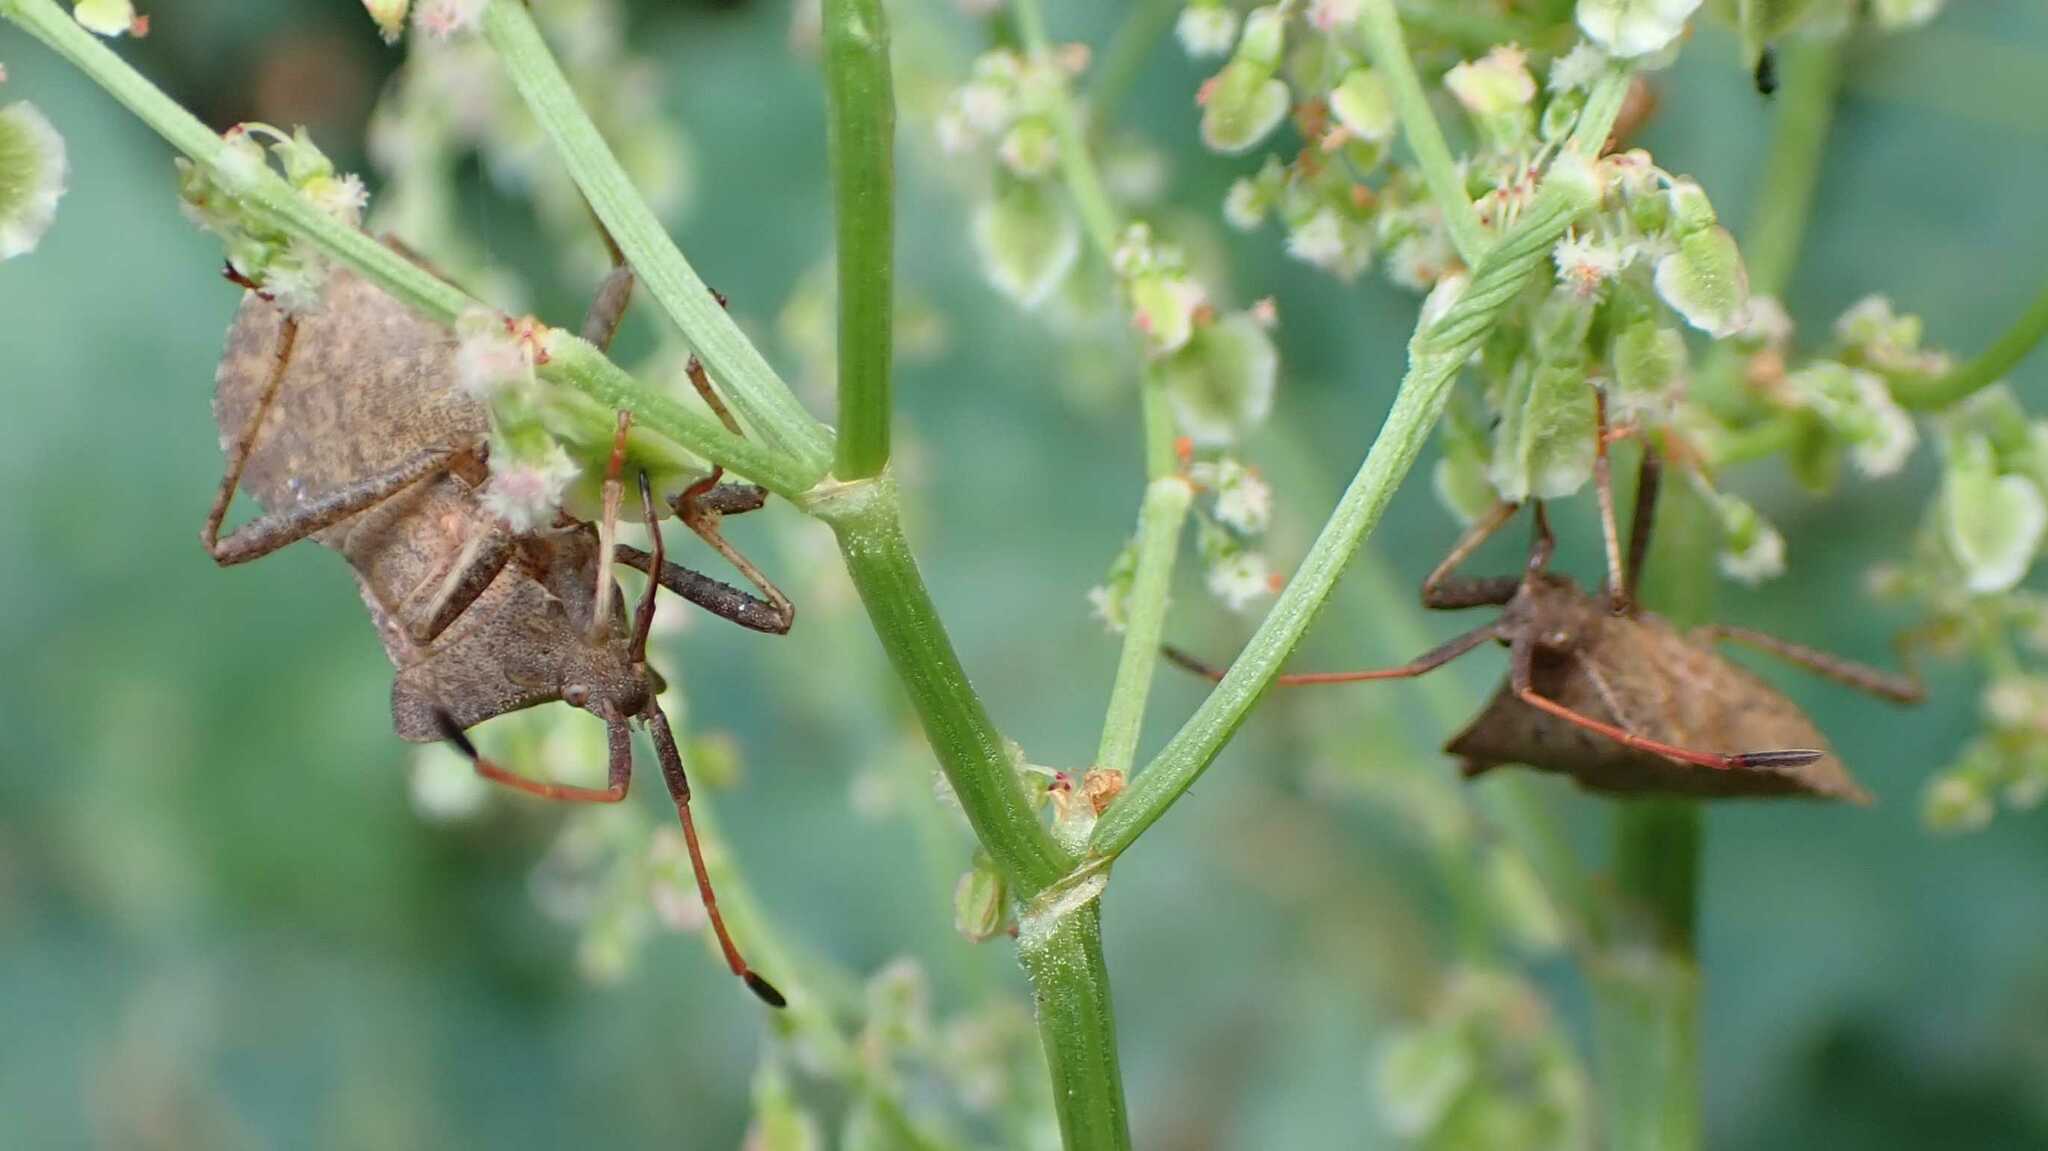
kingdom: Animalia
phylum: Arthropoda
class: Insecta
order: Hemiptera
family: Coreidae
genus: Coreus
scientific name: Coreus marginatus
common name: Dock bug
